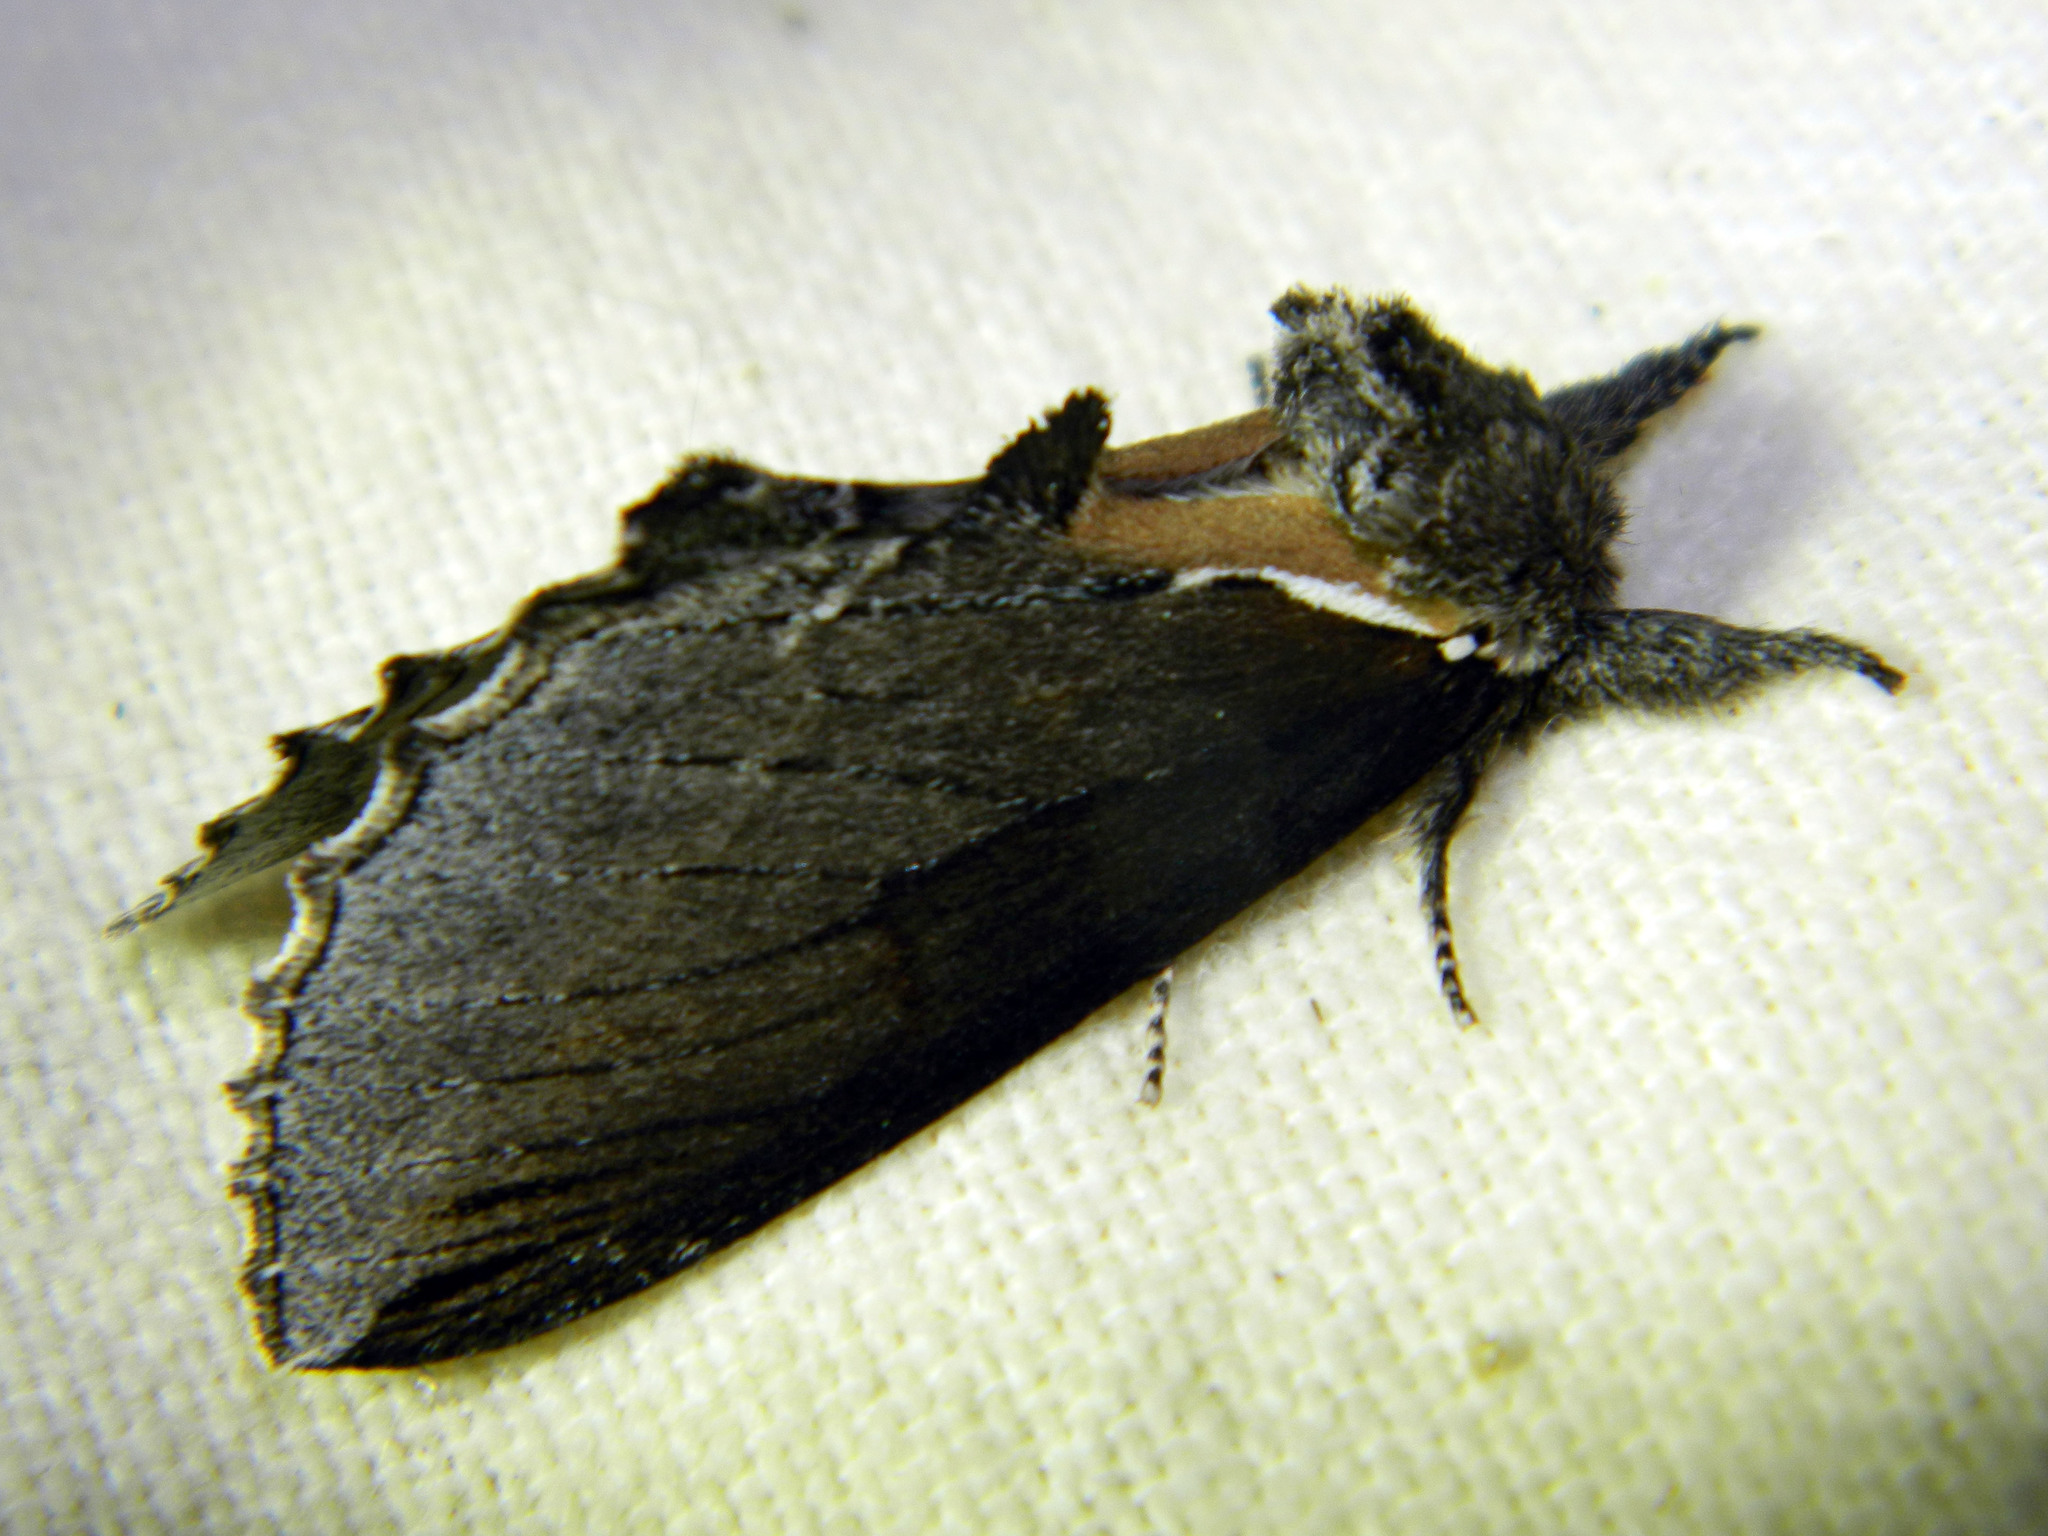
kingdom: Animalia
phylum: Arthropoda
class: Insecta
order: Lepidoptera
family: Notodontidae
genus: Pheosidea
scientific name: Pheosidea elegans
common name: Elegant prominent
